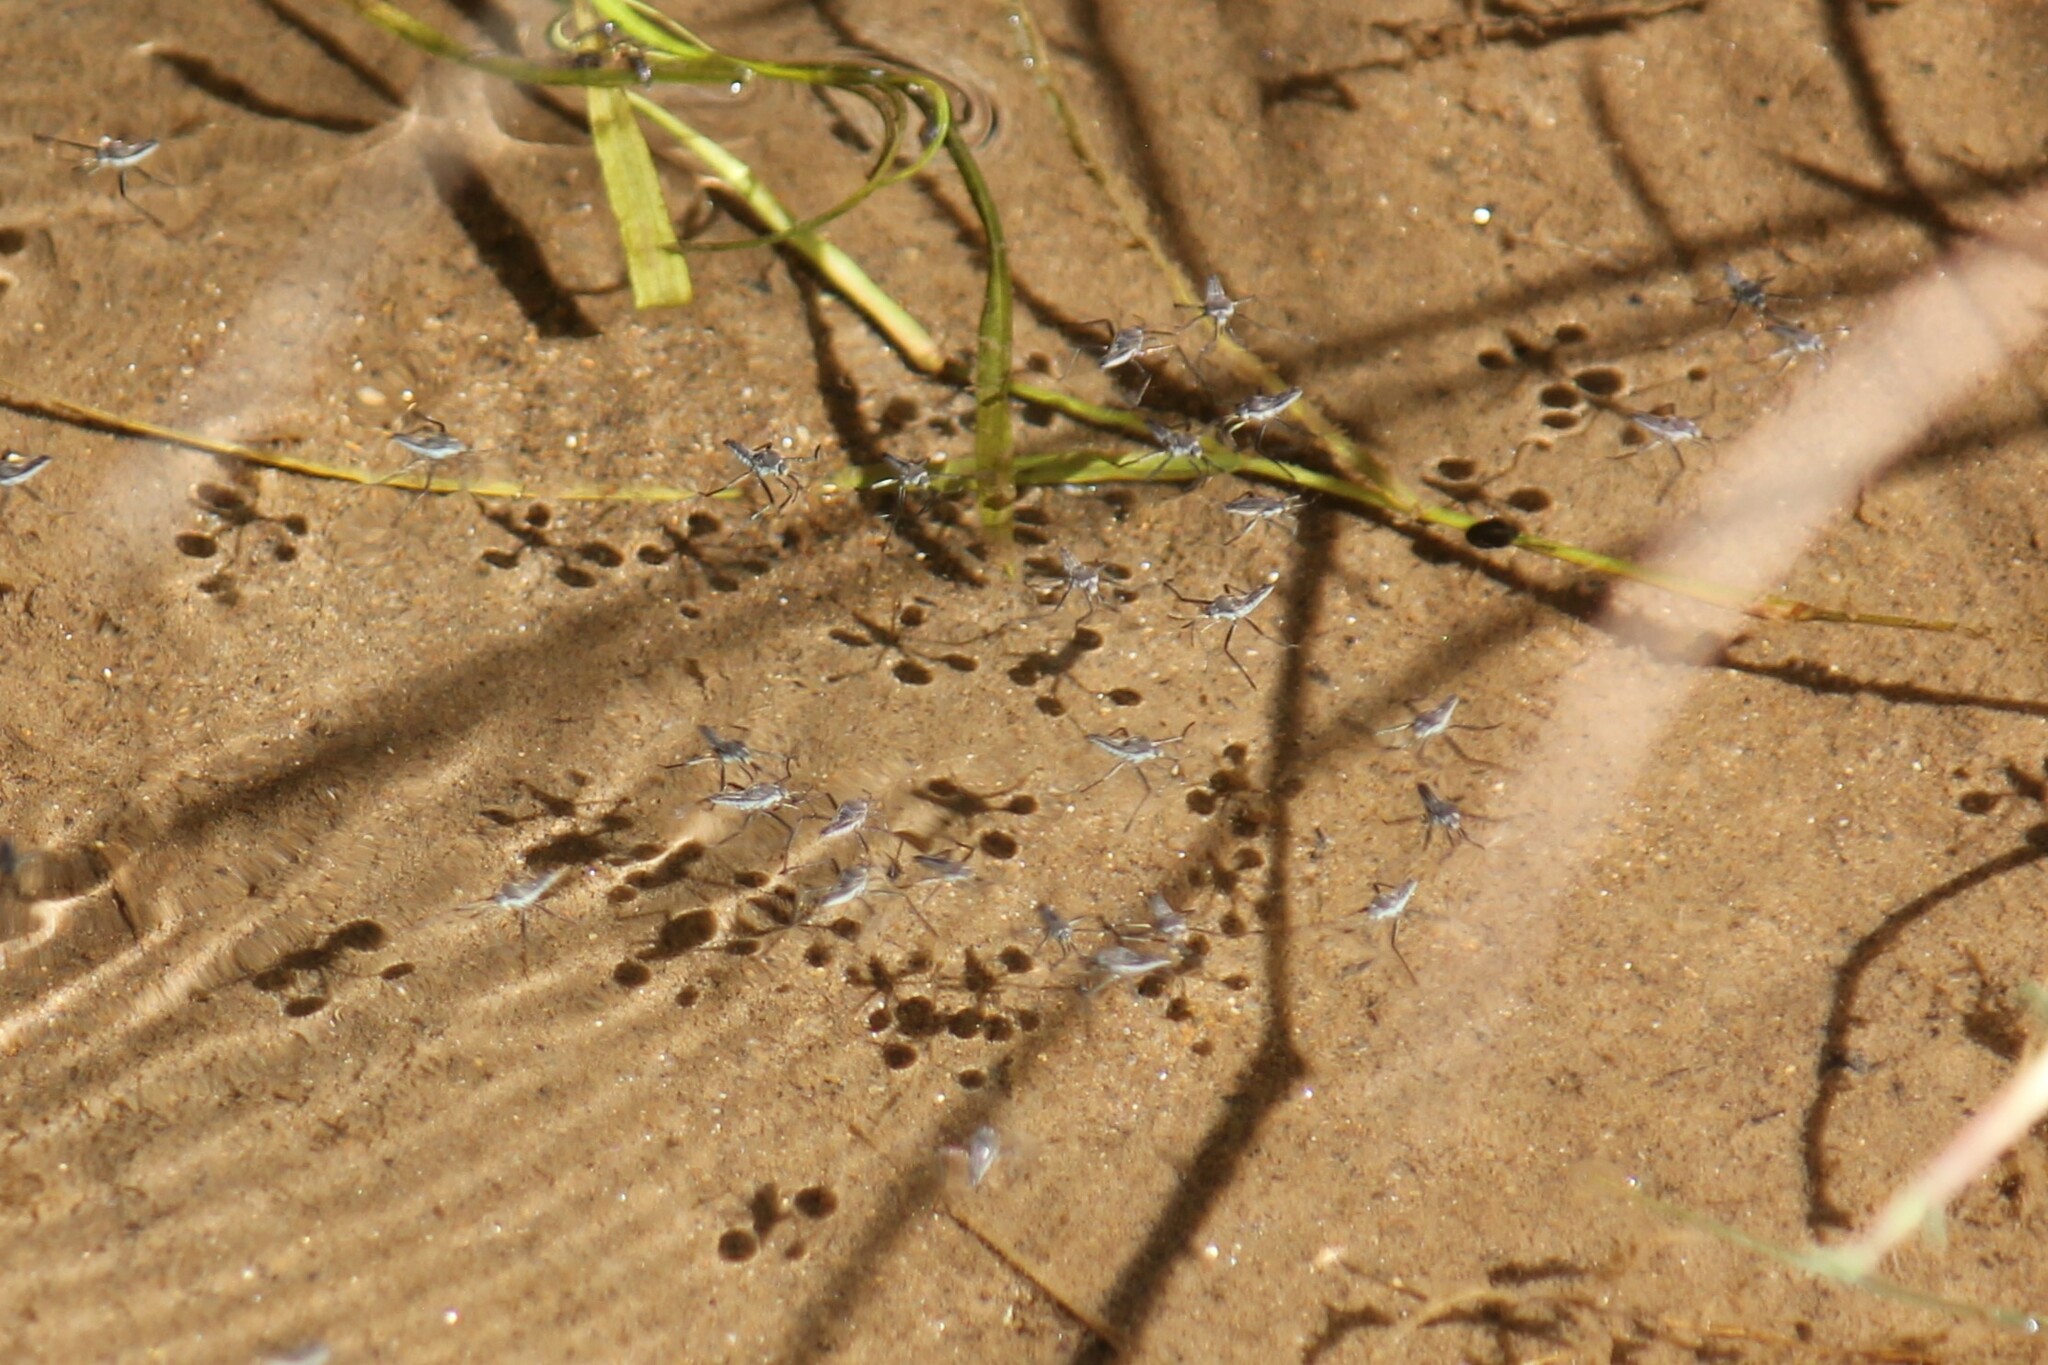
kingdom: Animalia
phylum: Arthropoda
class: Insecta
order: Hemiptera
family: Veliidae
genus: Rhagovelia
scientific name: Rhagovelia distincta
